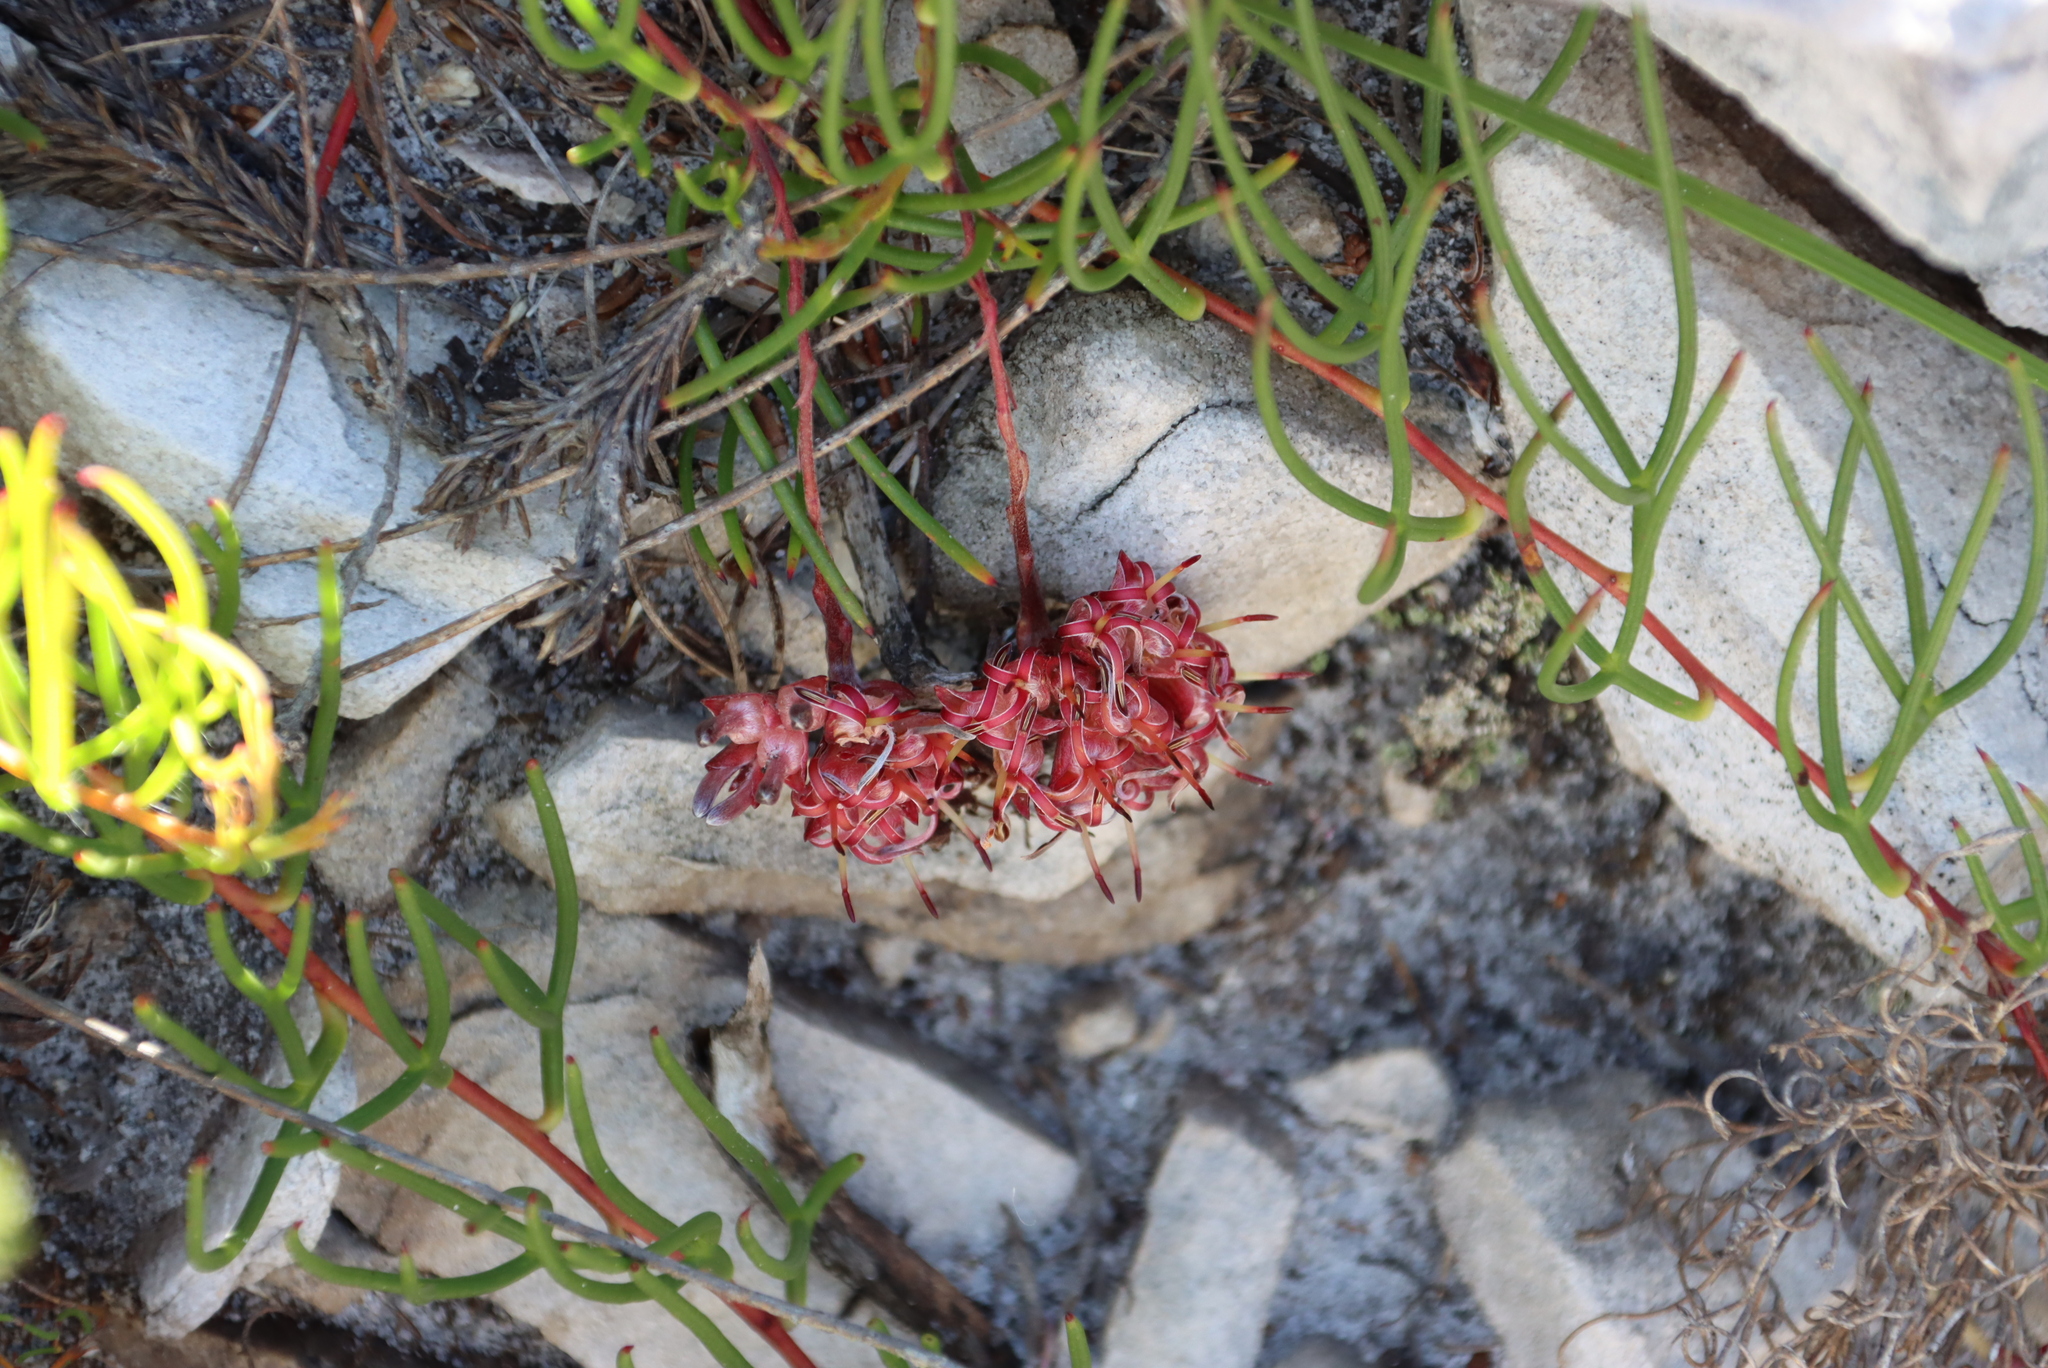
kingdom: Plantae
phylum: Tracheophyta
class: Magnoliopsida
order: Proteales
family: Proteaceae
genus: Serruria
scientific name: Serruria decumbens
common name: Peninsula spiderhead
